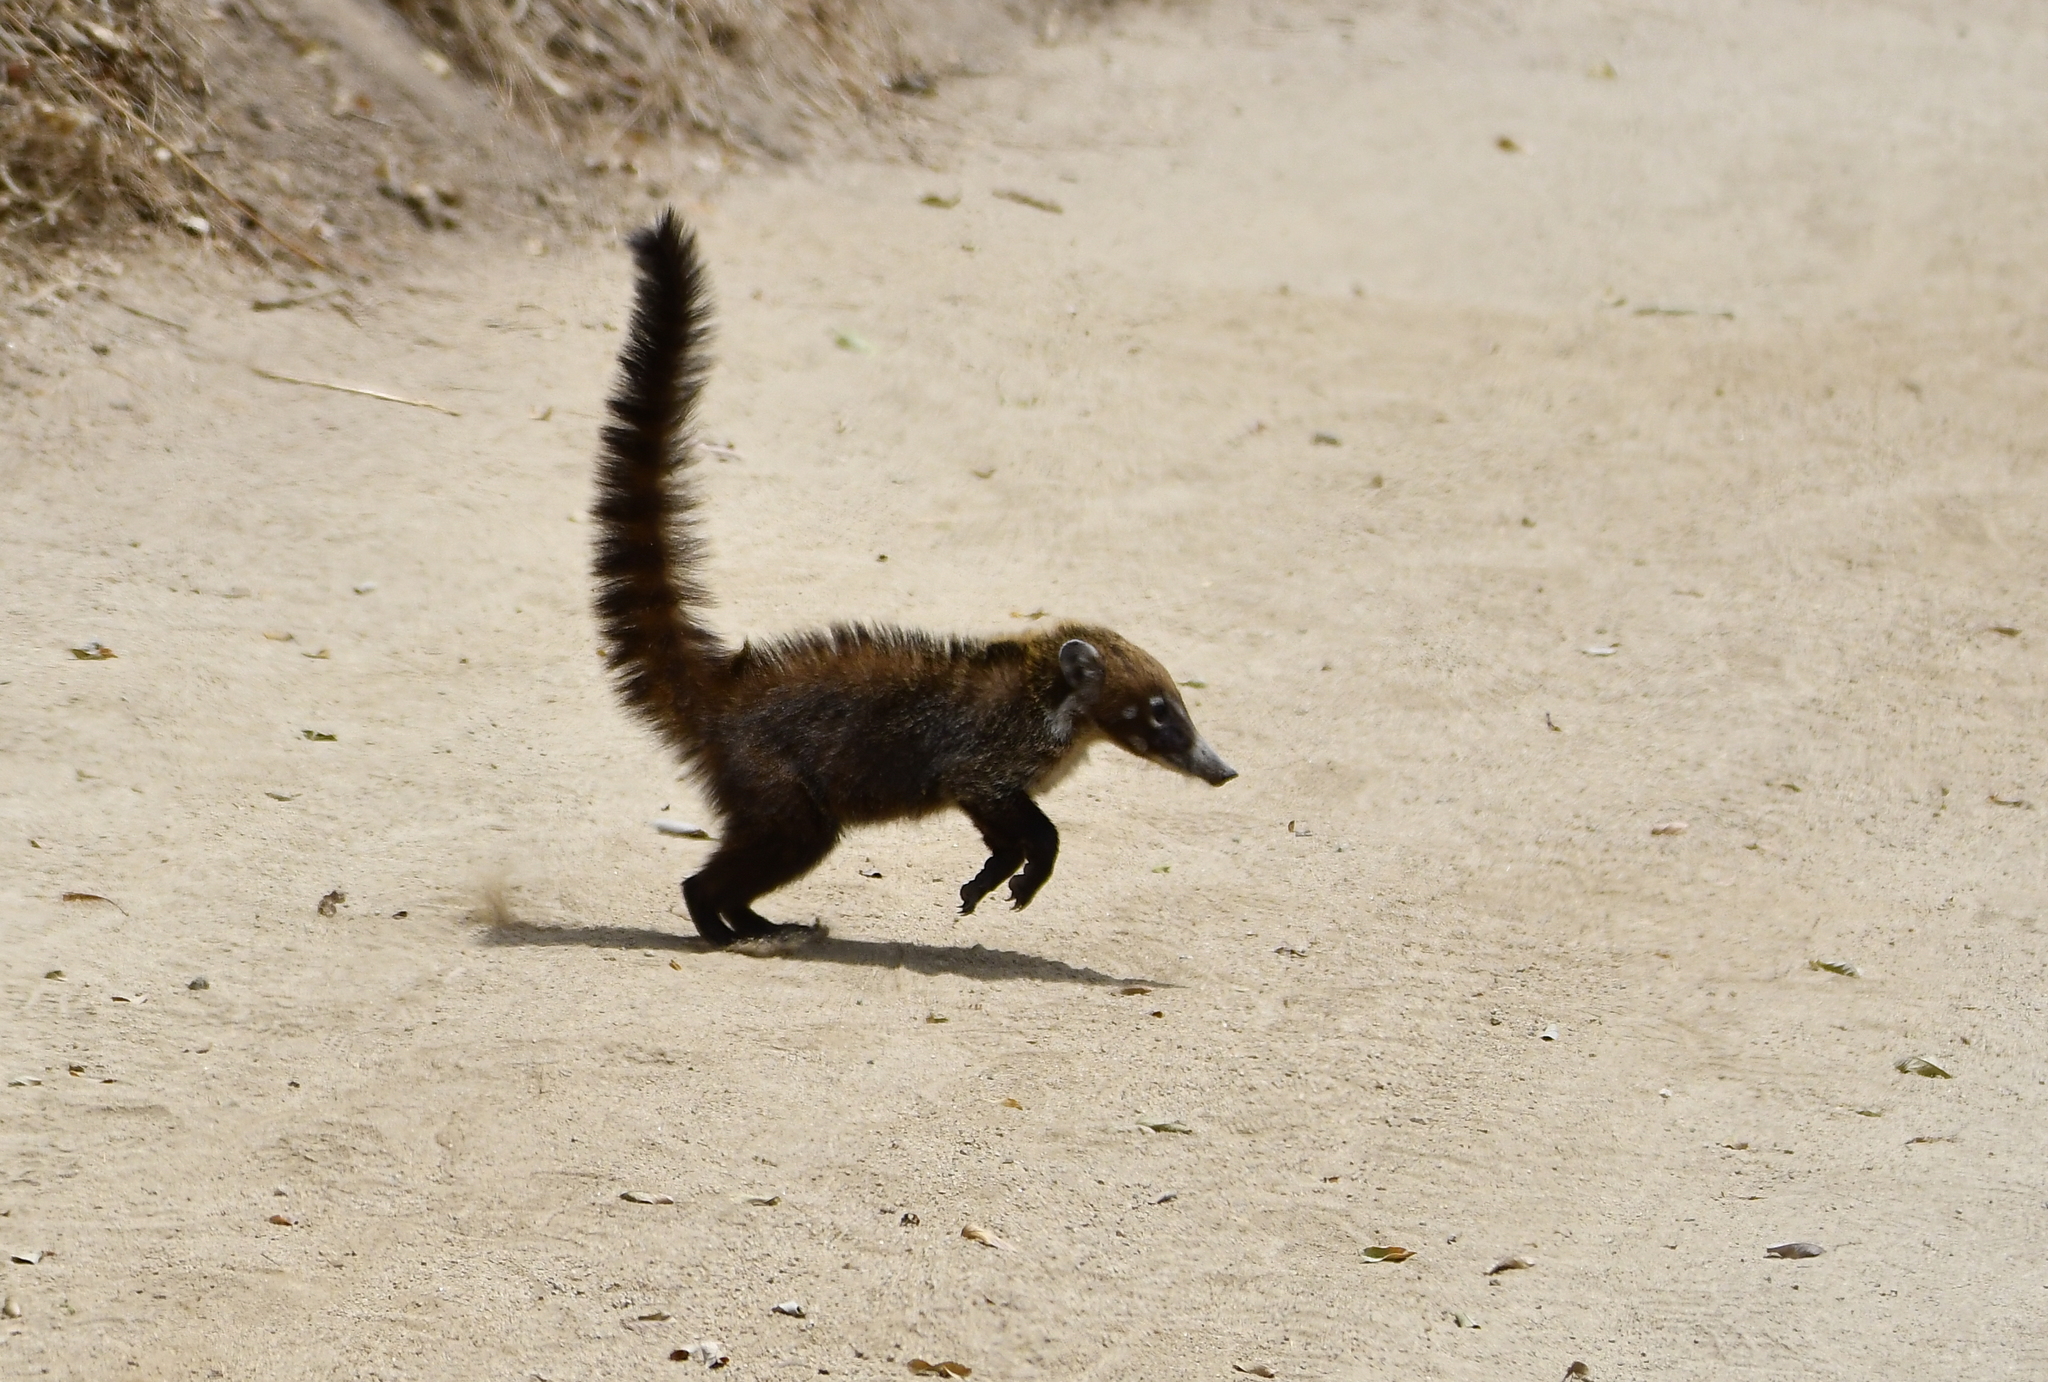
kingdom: Animalia
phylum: Chordata
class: Mammalia
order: Carnivora
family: Procyonidae
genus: Nasua
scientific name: Nasua narica
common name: White-nosed coati
